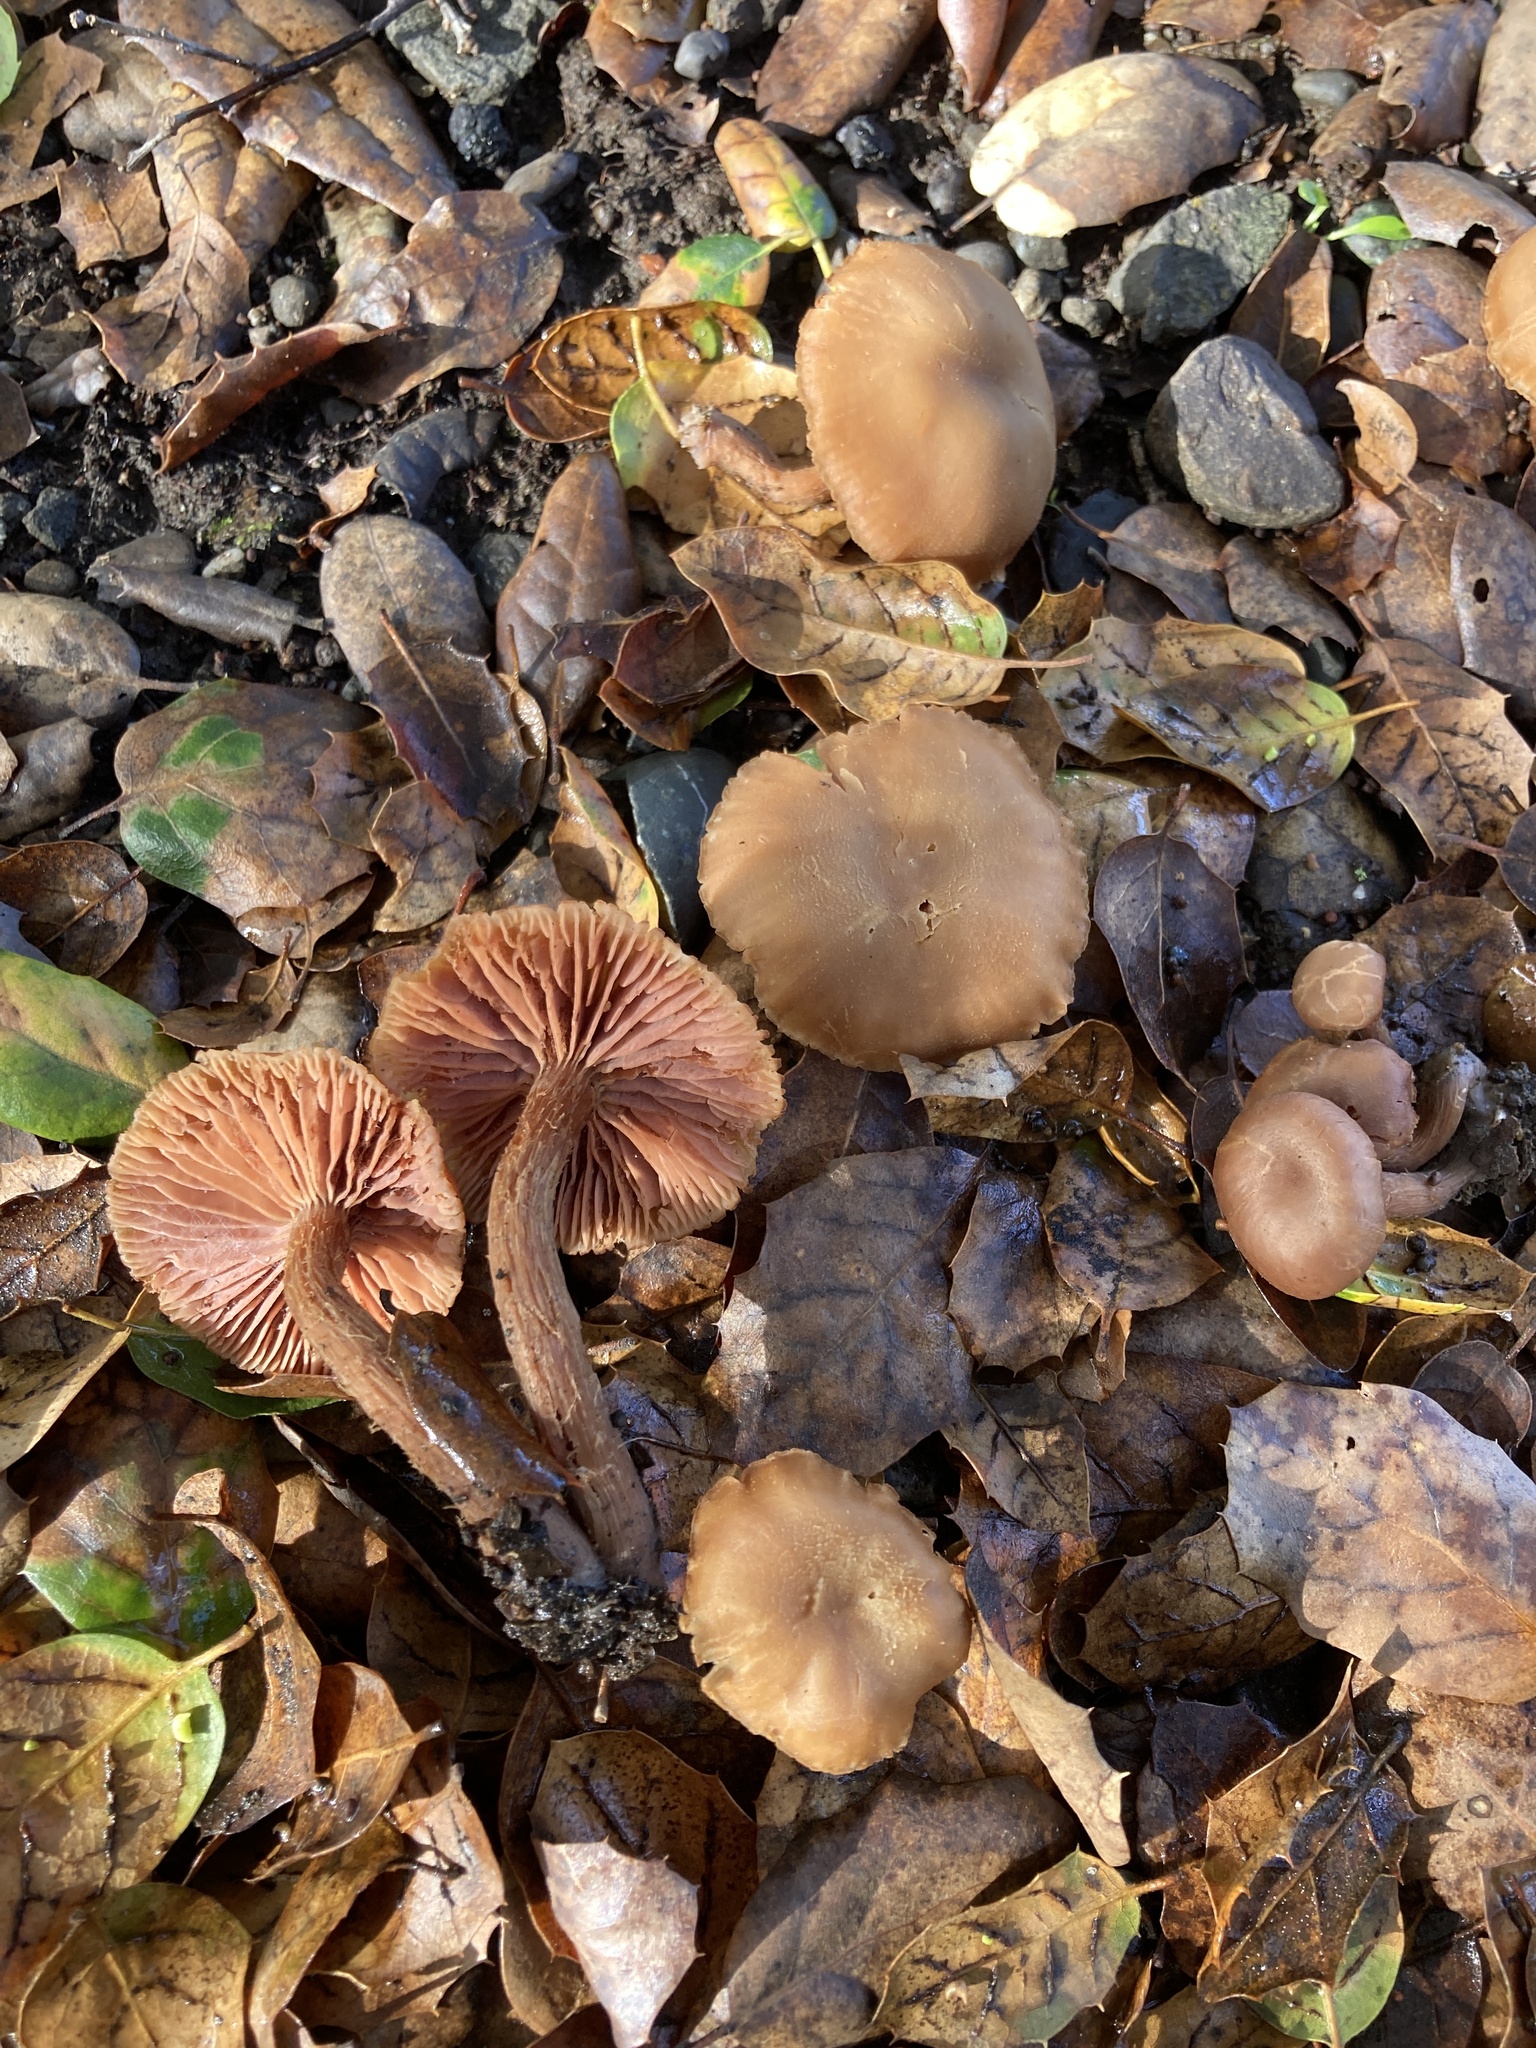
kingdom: Fungi
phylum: Basidiomycota
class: Agaricomycetes
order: Agaricales
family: Hydnangiaceae
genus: Laccaria
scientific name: Laccaria amethysteo-occidentalis
